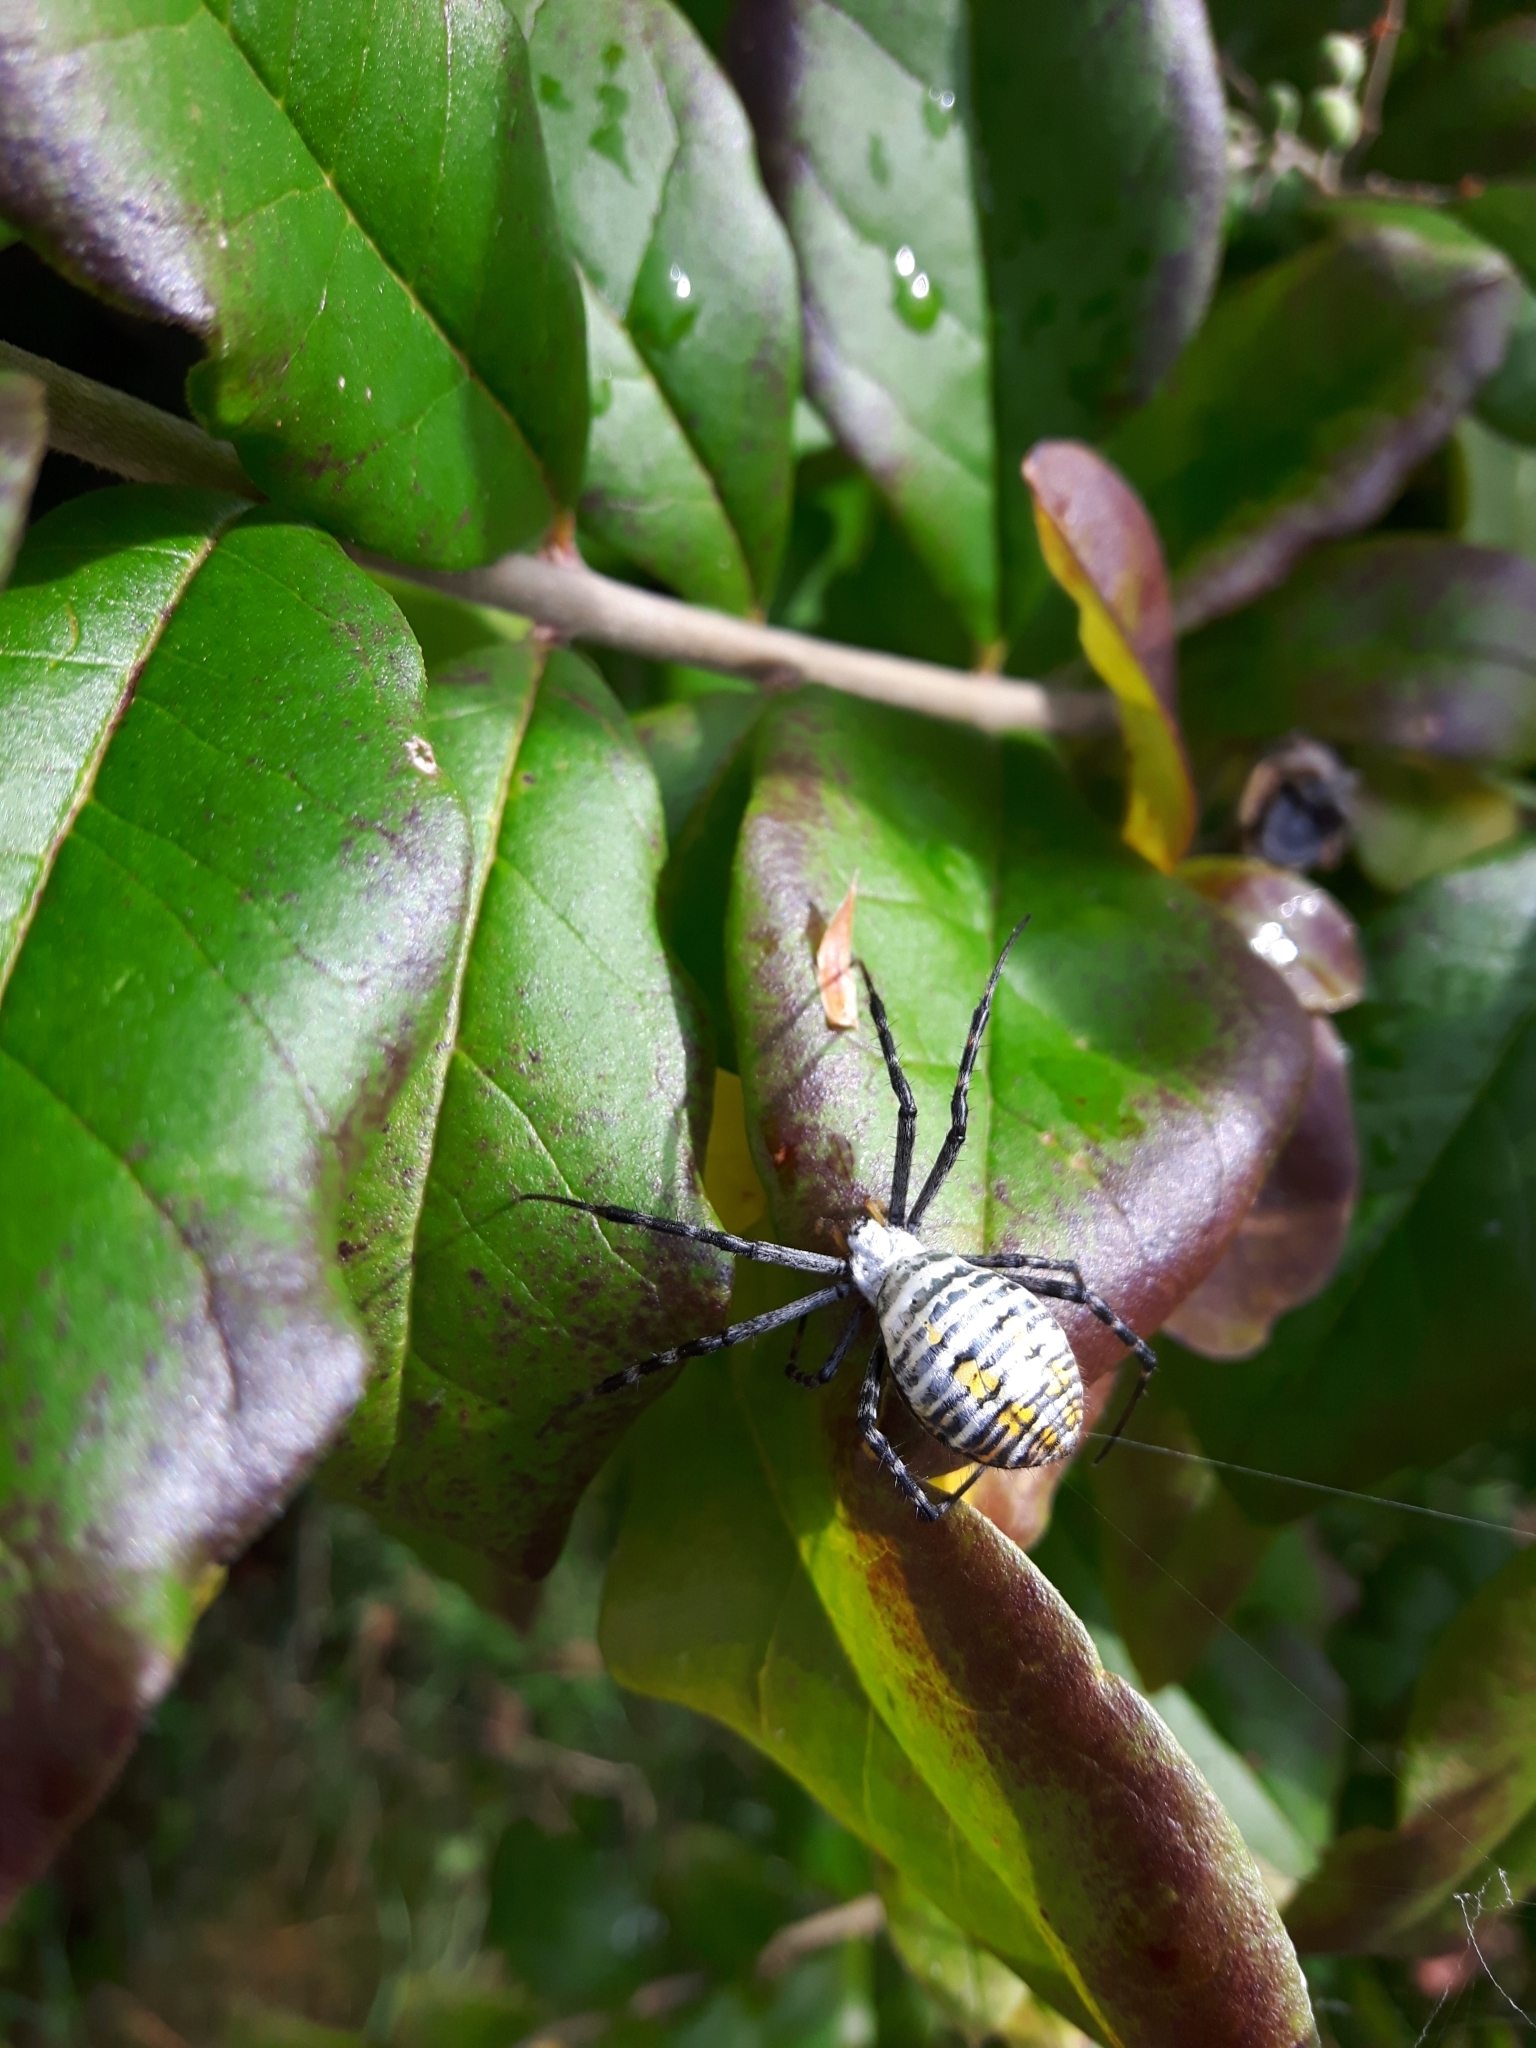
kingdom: Animalia
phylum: Arthropoda
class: Arachnida
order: Araneae
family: Araneidae
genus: Argiope
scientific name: Argiope trifasciata
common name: Banded garden spider
